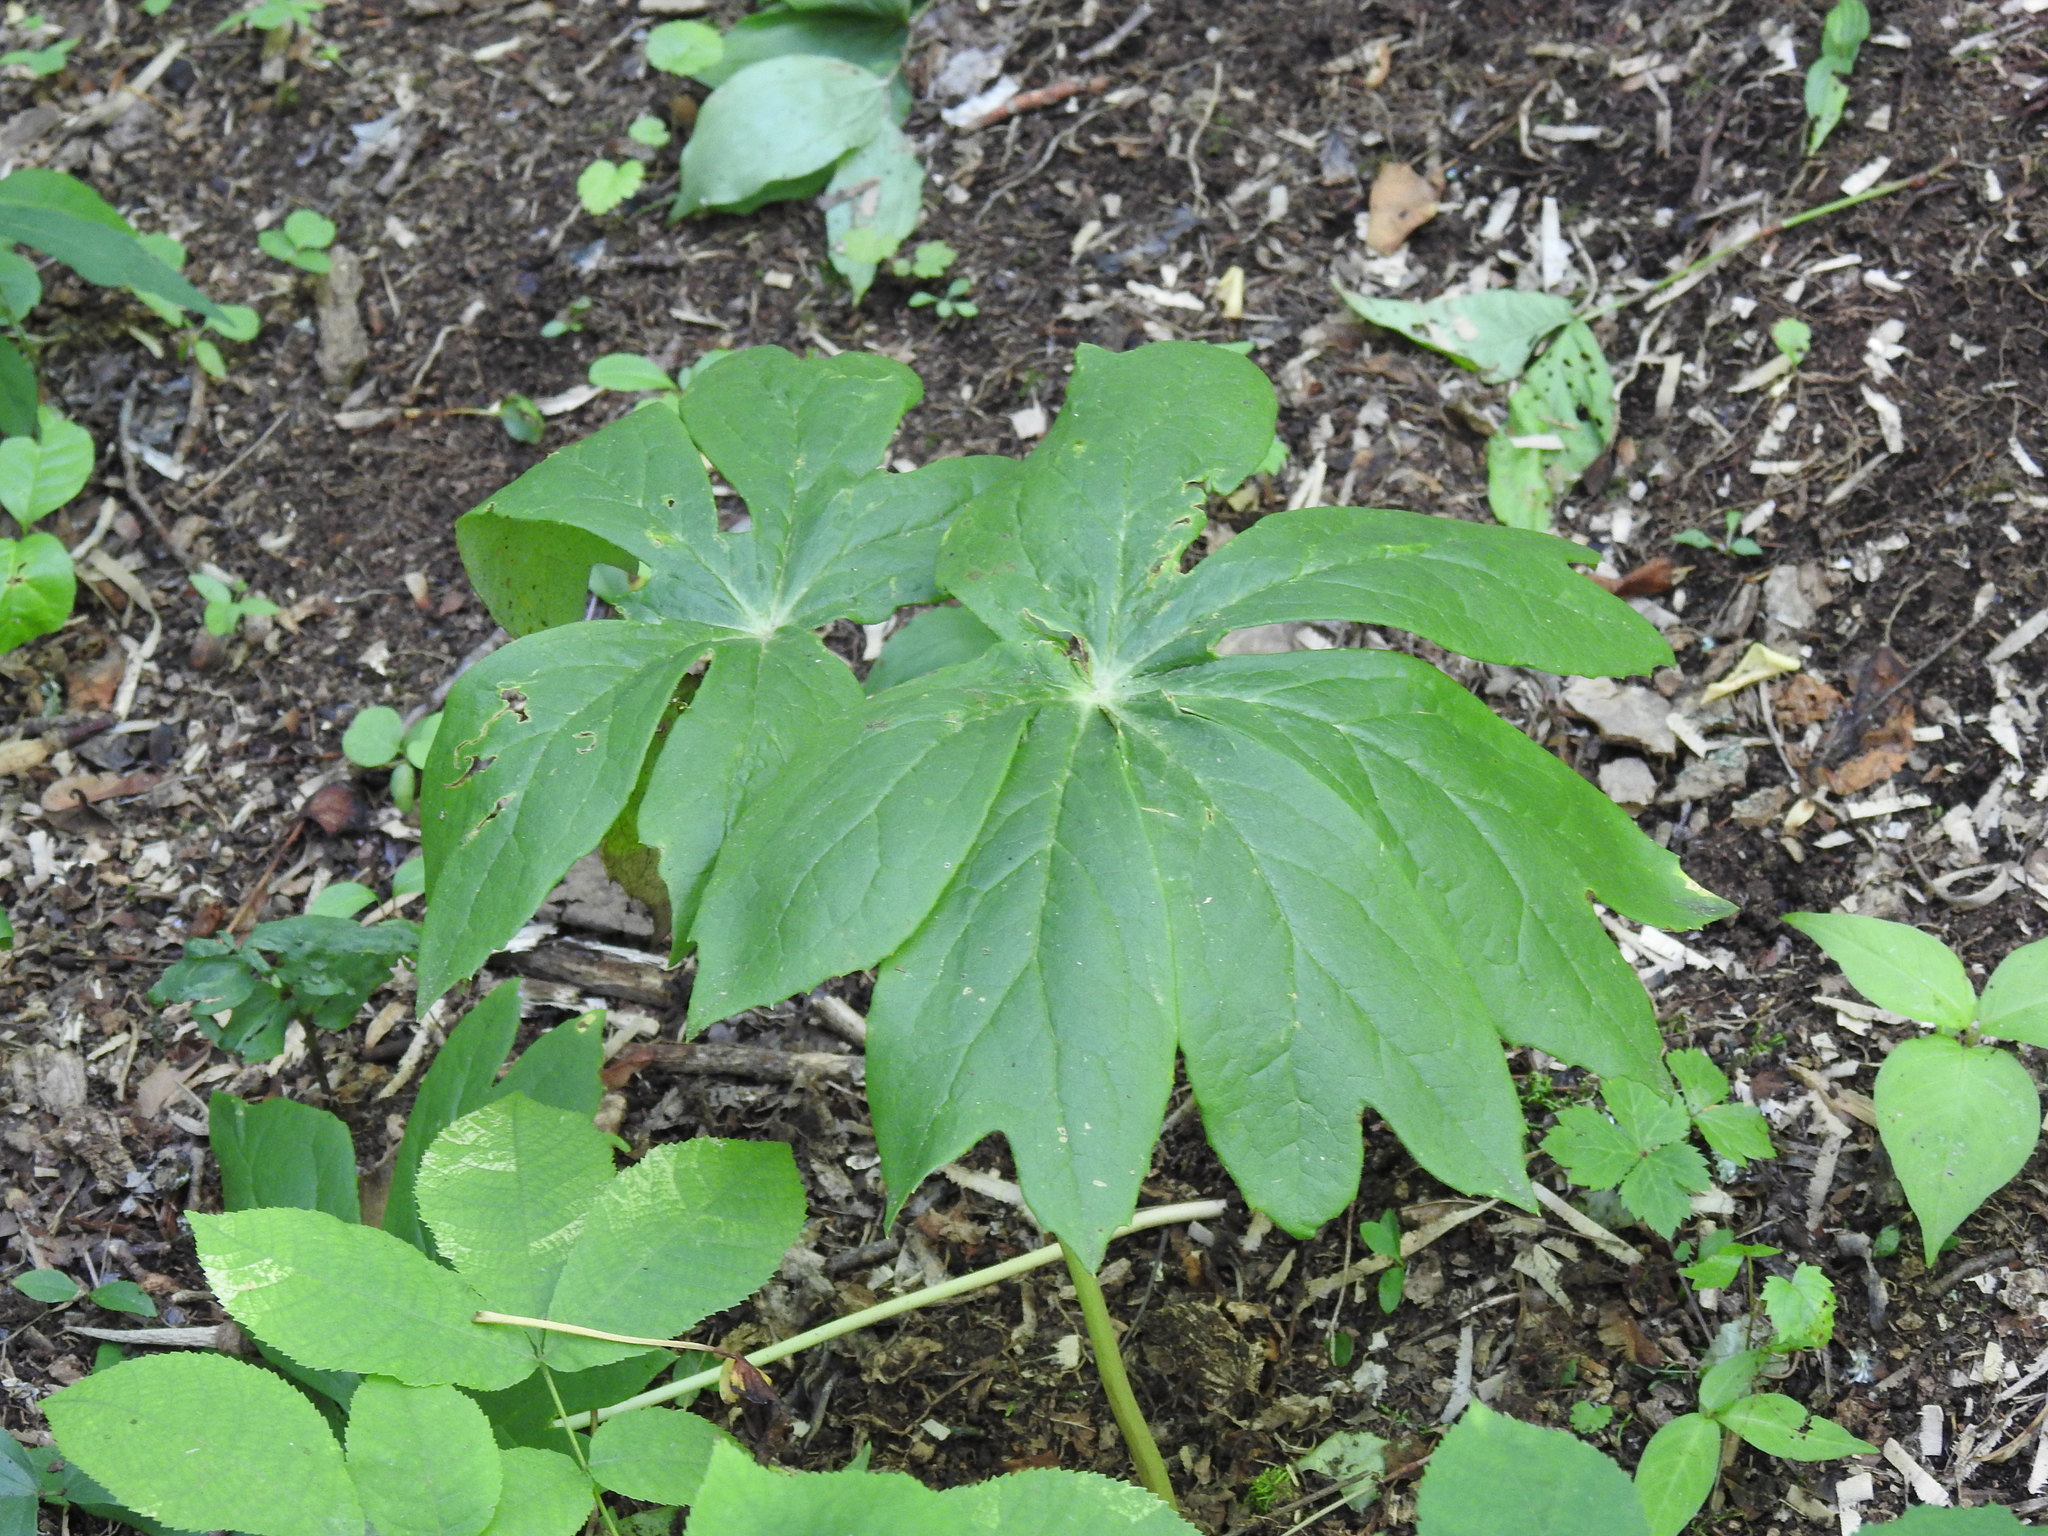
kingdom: Plantae
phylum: Tracheophyta
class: Magnoliopsida
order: Ranunculales
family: Berberidaceae
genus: Podophyllum
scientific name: Podophyllum peltatum
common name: Wild mandrake
